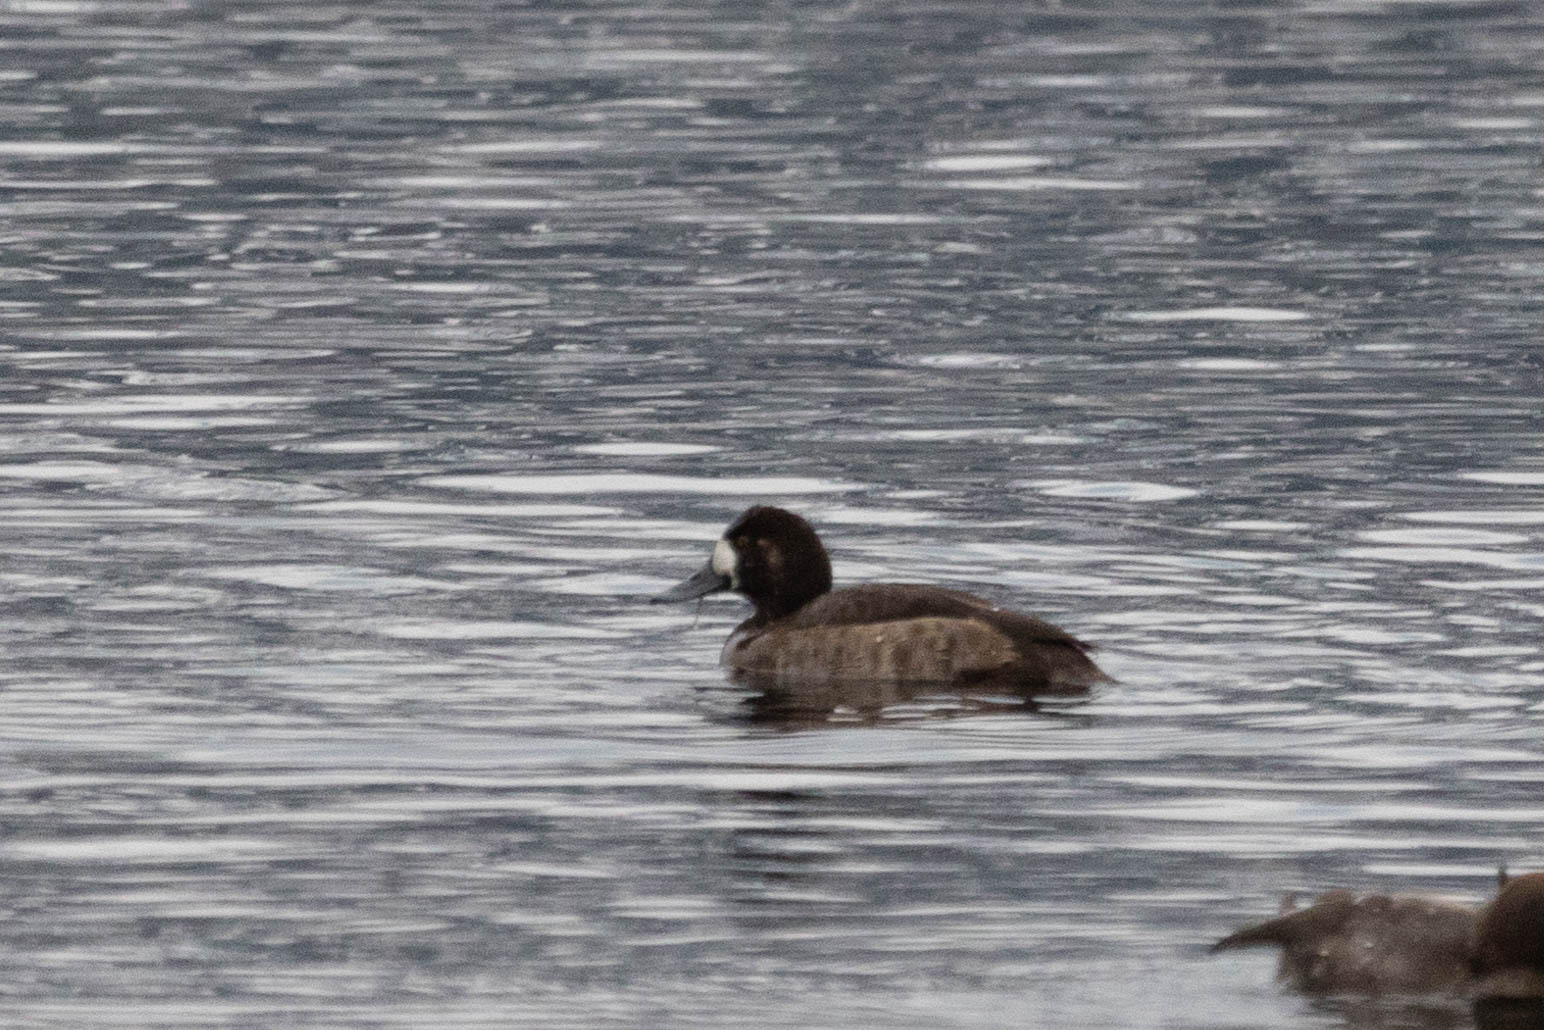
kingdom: Animalia
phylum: Chordata
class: Aves
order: Anseriformes
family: Anatidae
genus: Aythya
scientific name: Aythya marila
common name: Greater scaup
